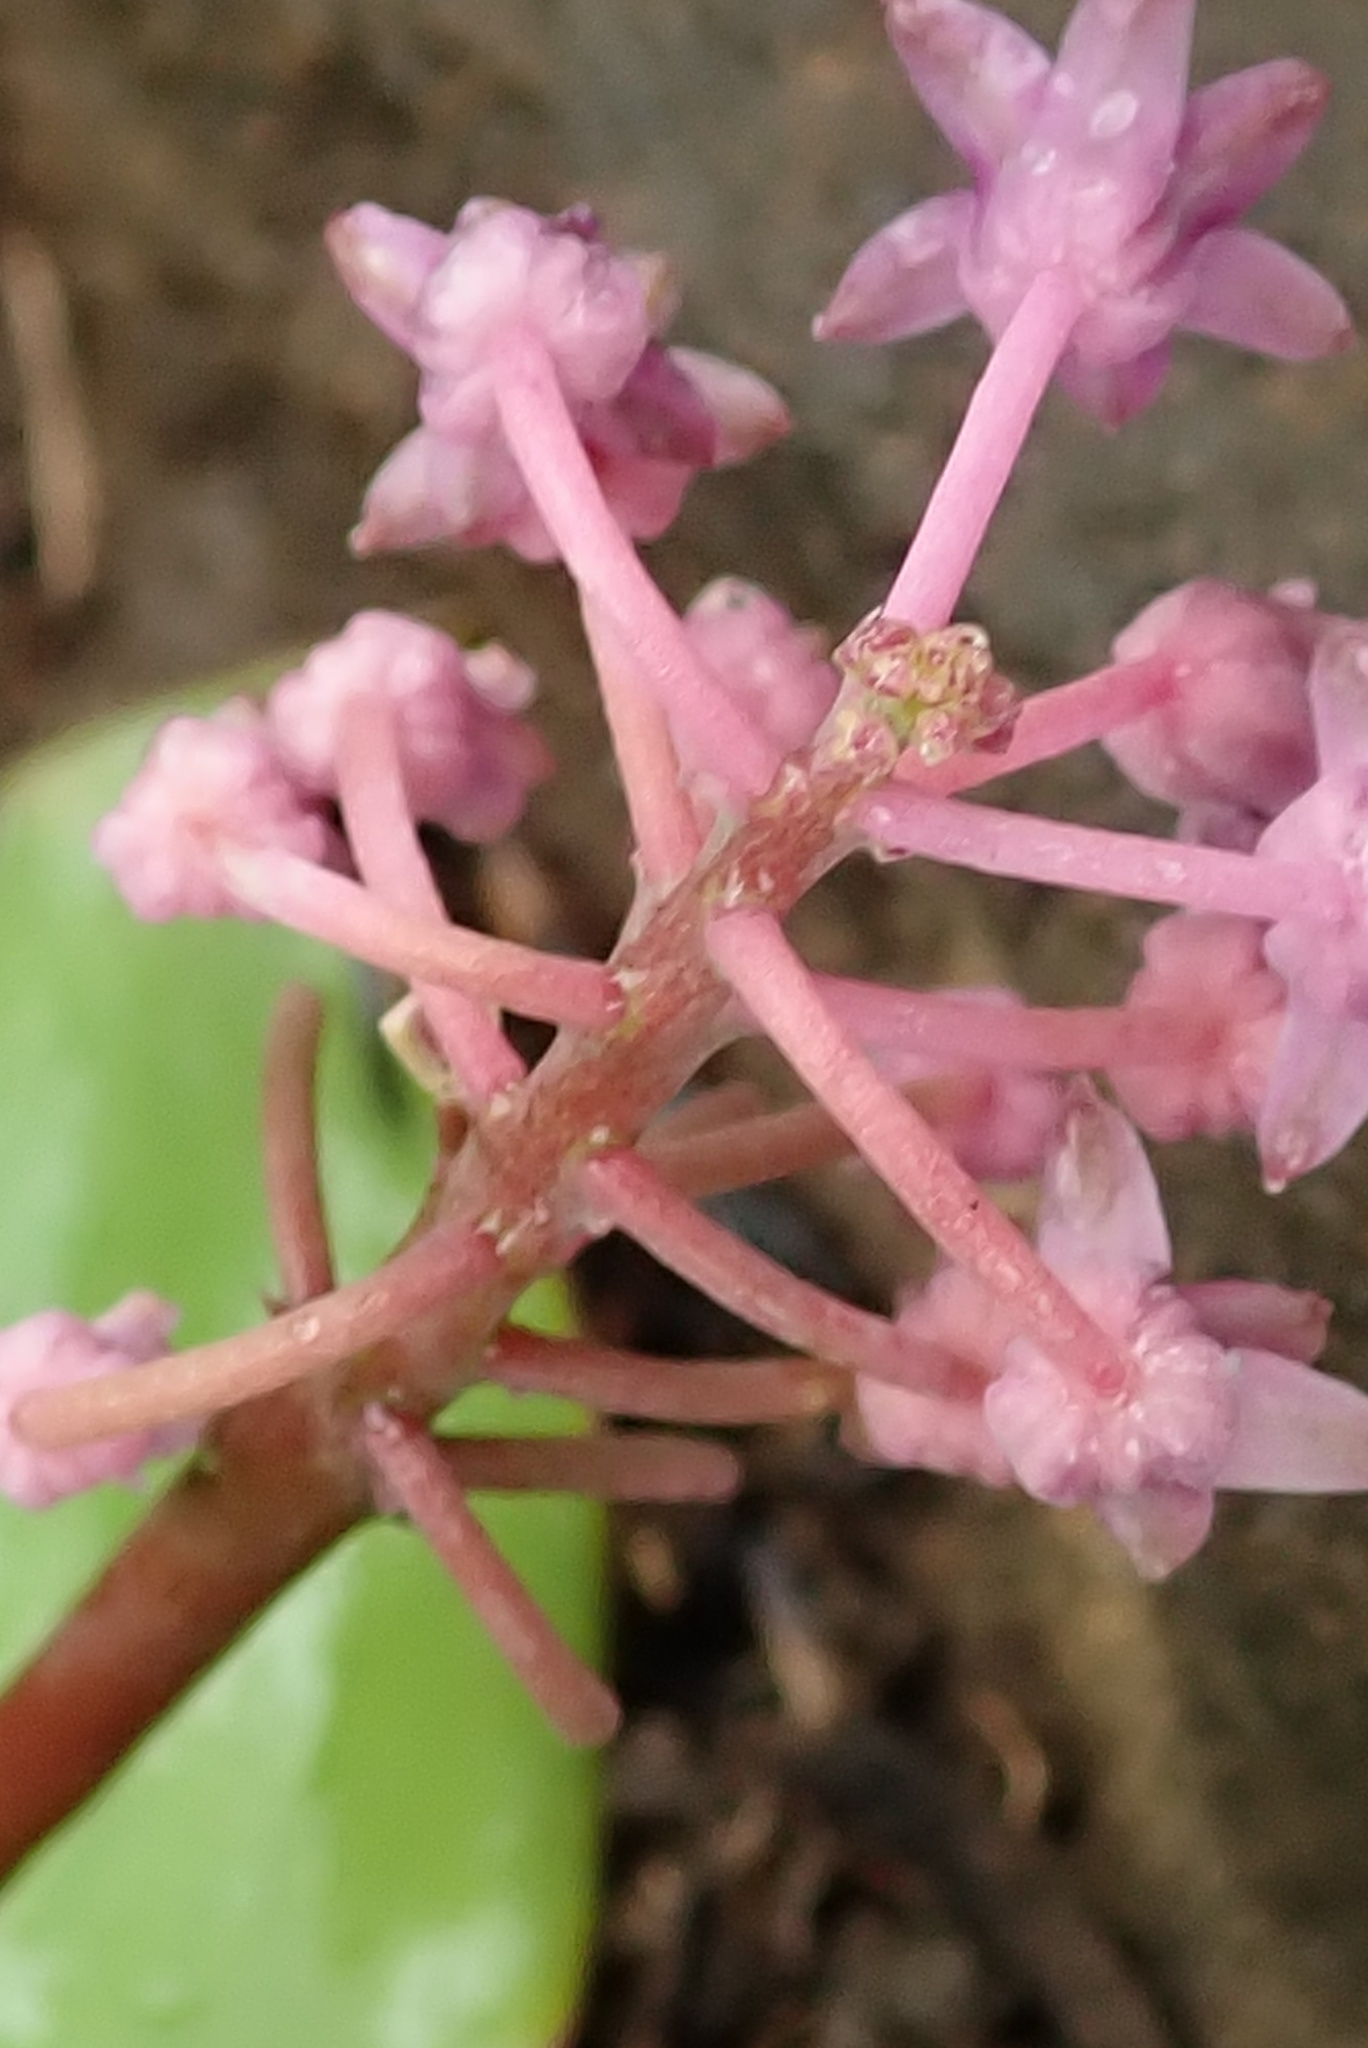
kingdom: Plantae
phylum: Tracheophyta
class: Liliopsida
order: Asparagales
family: Asparagaceae
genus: Ledebouria
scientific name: Ledebouria sandersonii
